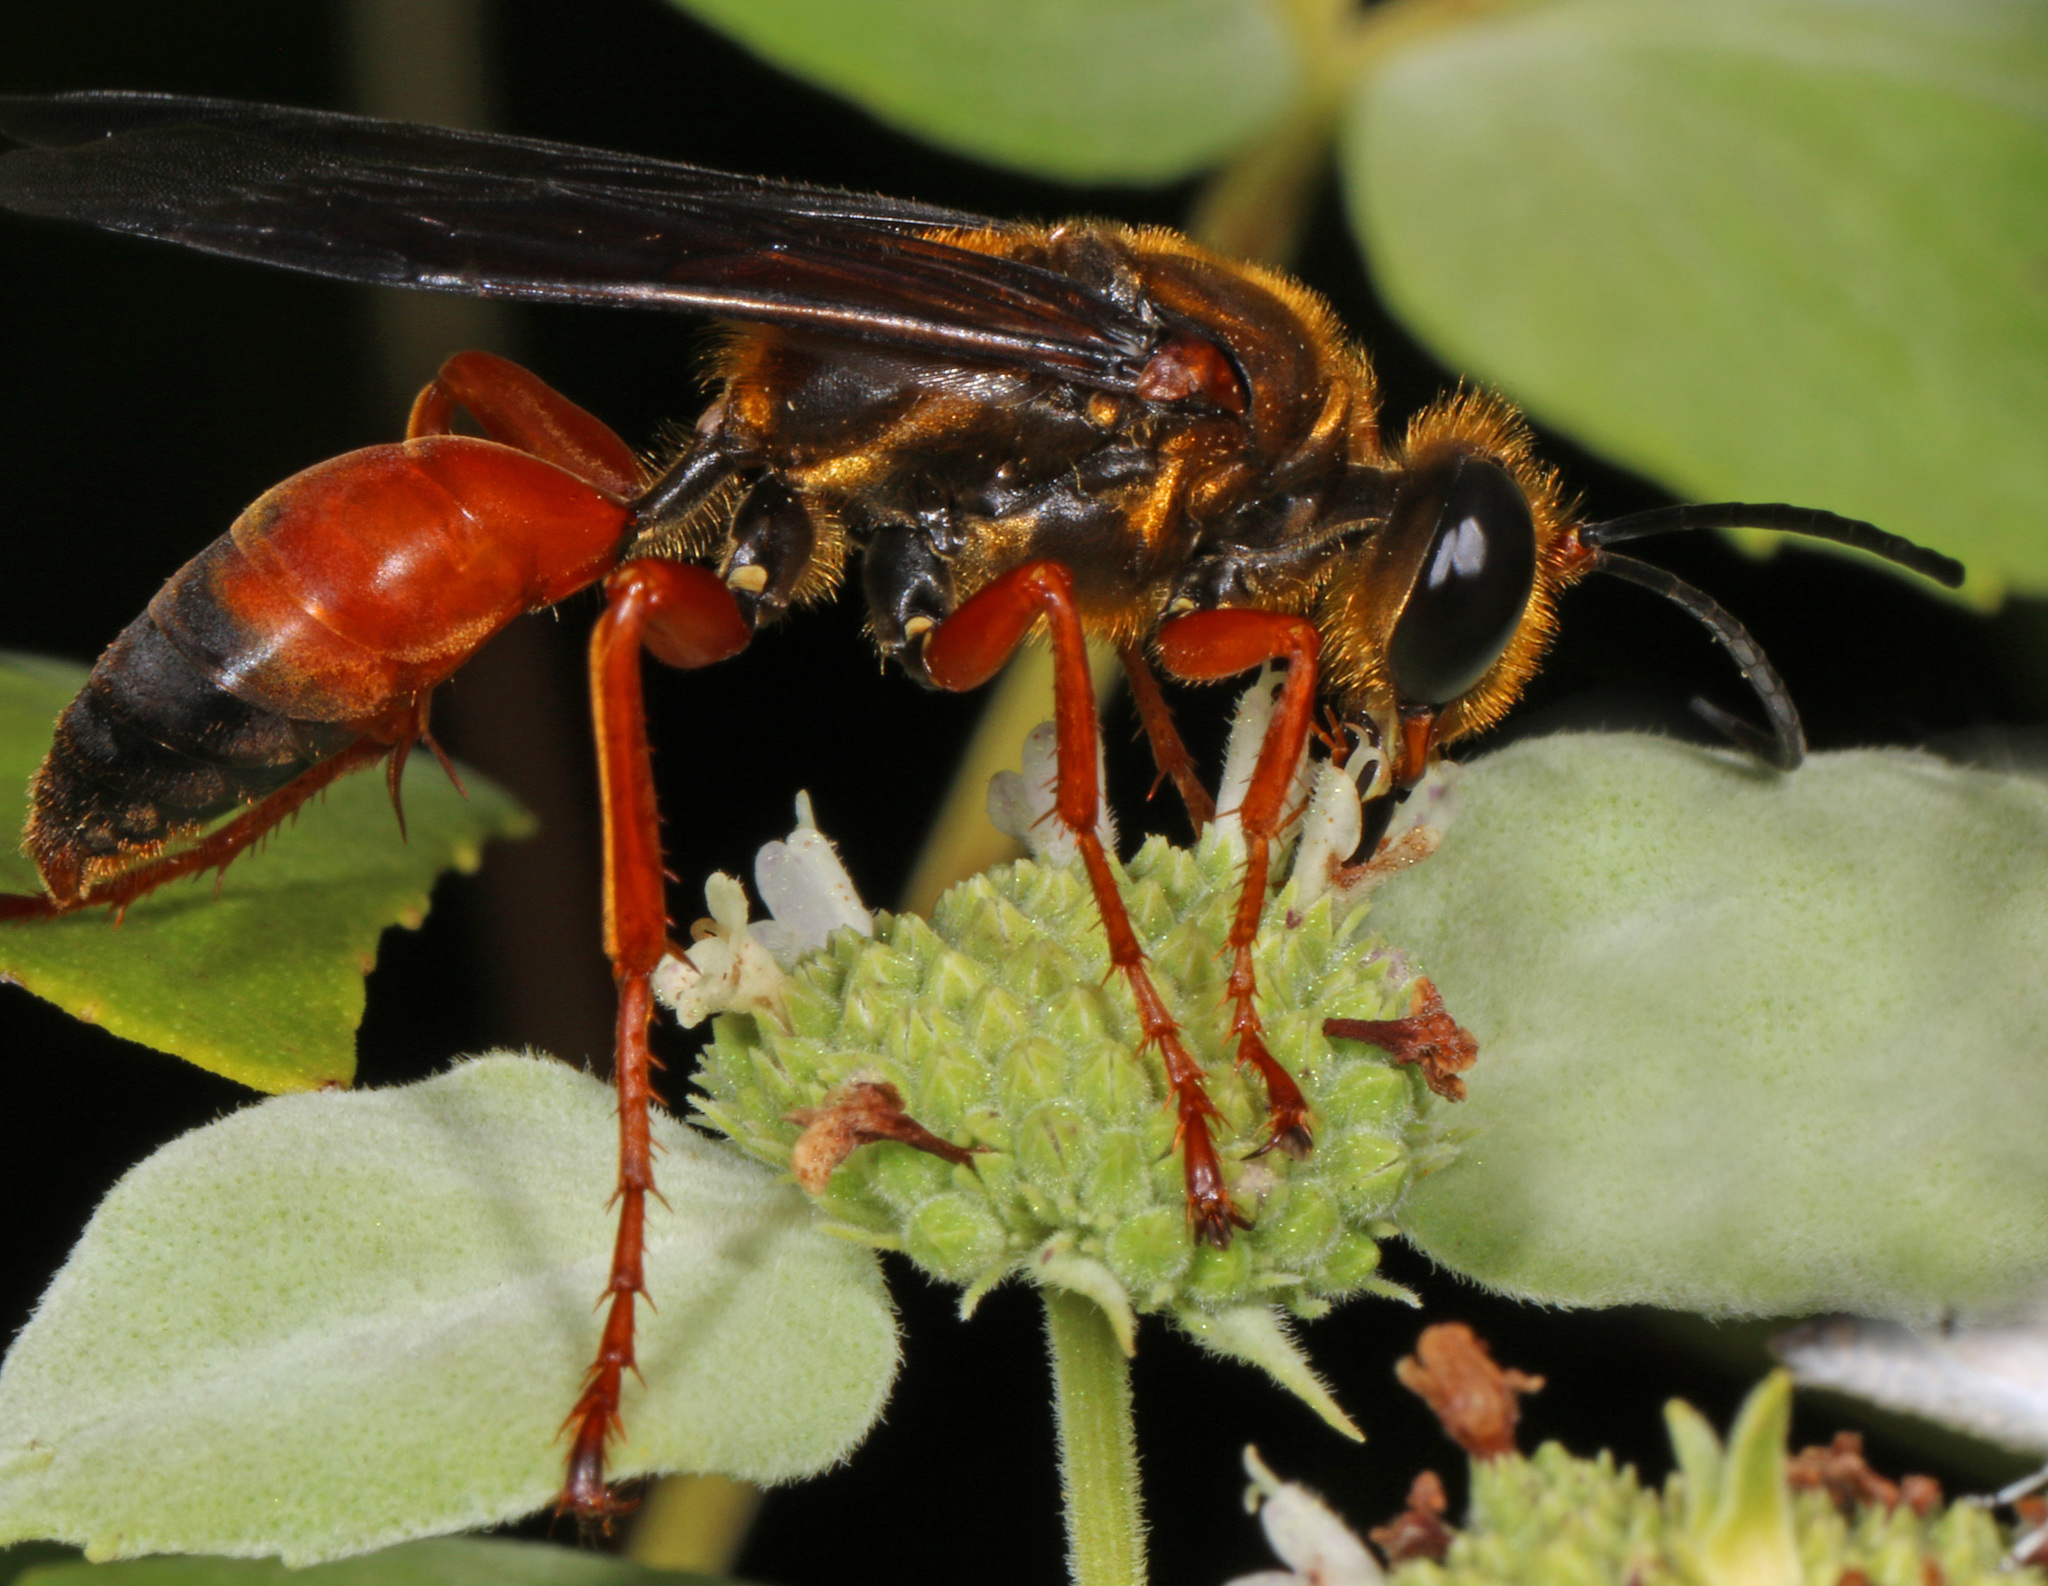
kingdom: Animalia
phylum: Arthropoda
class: Insecta
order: Hymenoptera
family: Sphecidae
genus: Sphex
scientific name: Sphex ichneumoneus
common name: Great golden digger wasp
